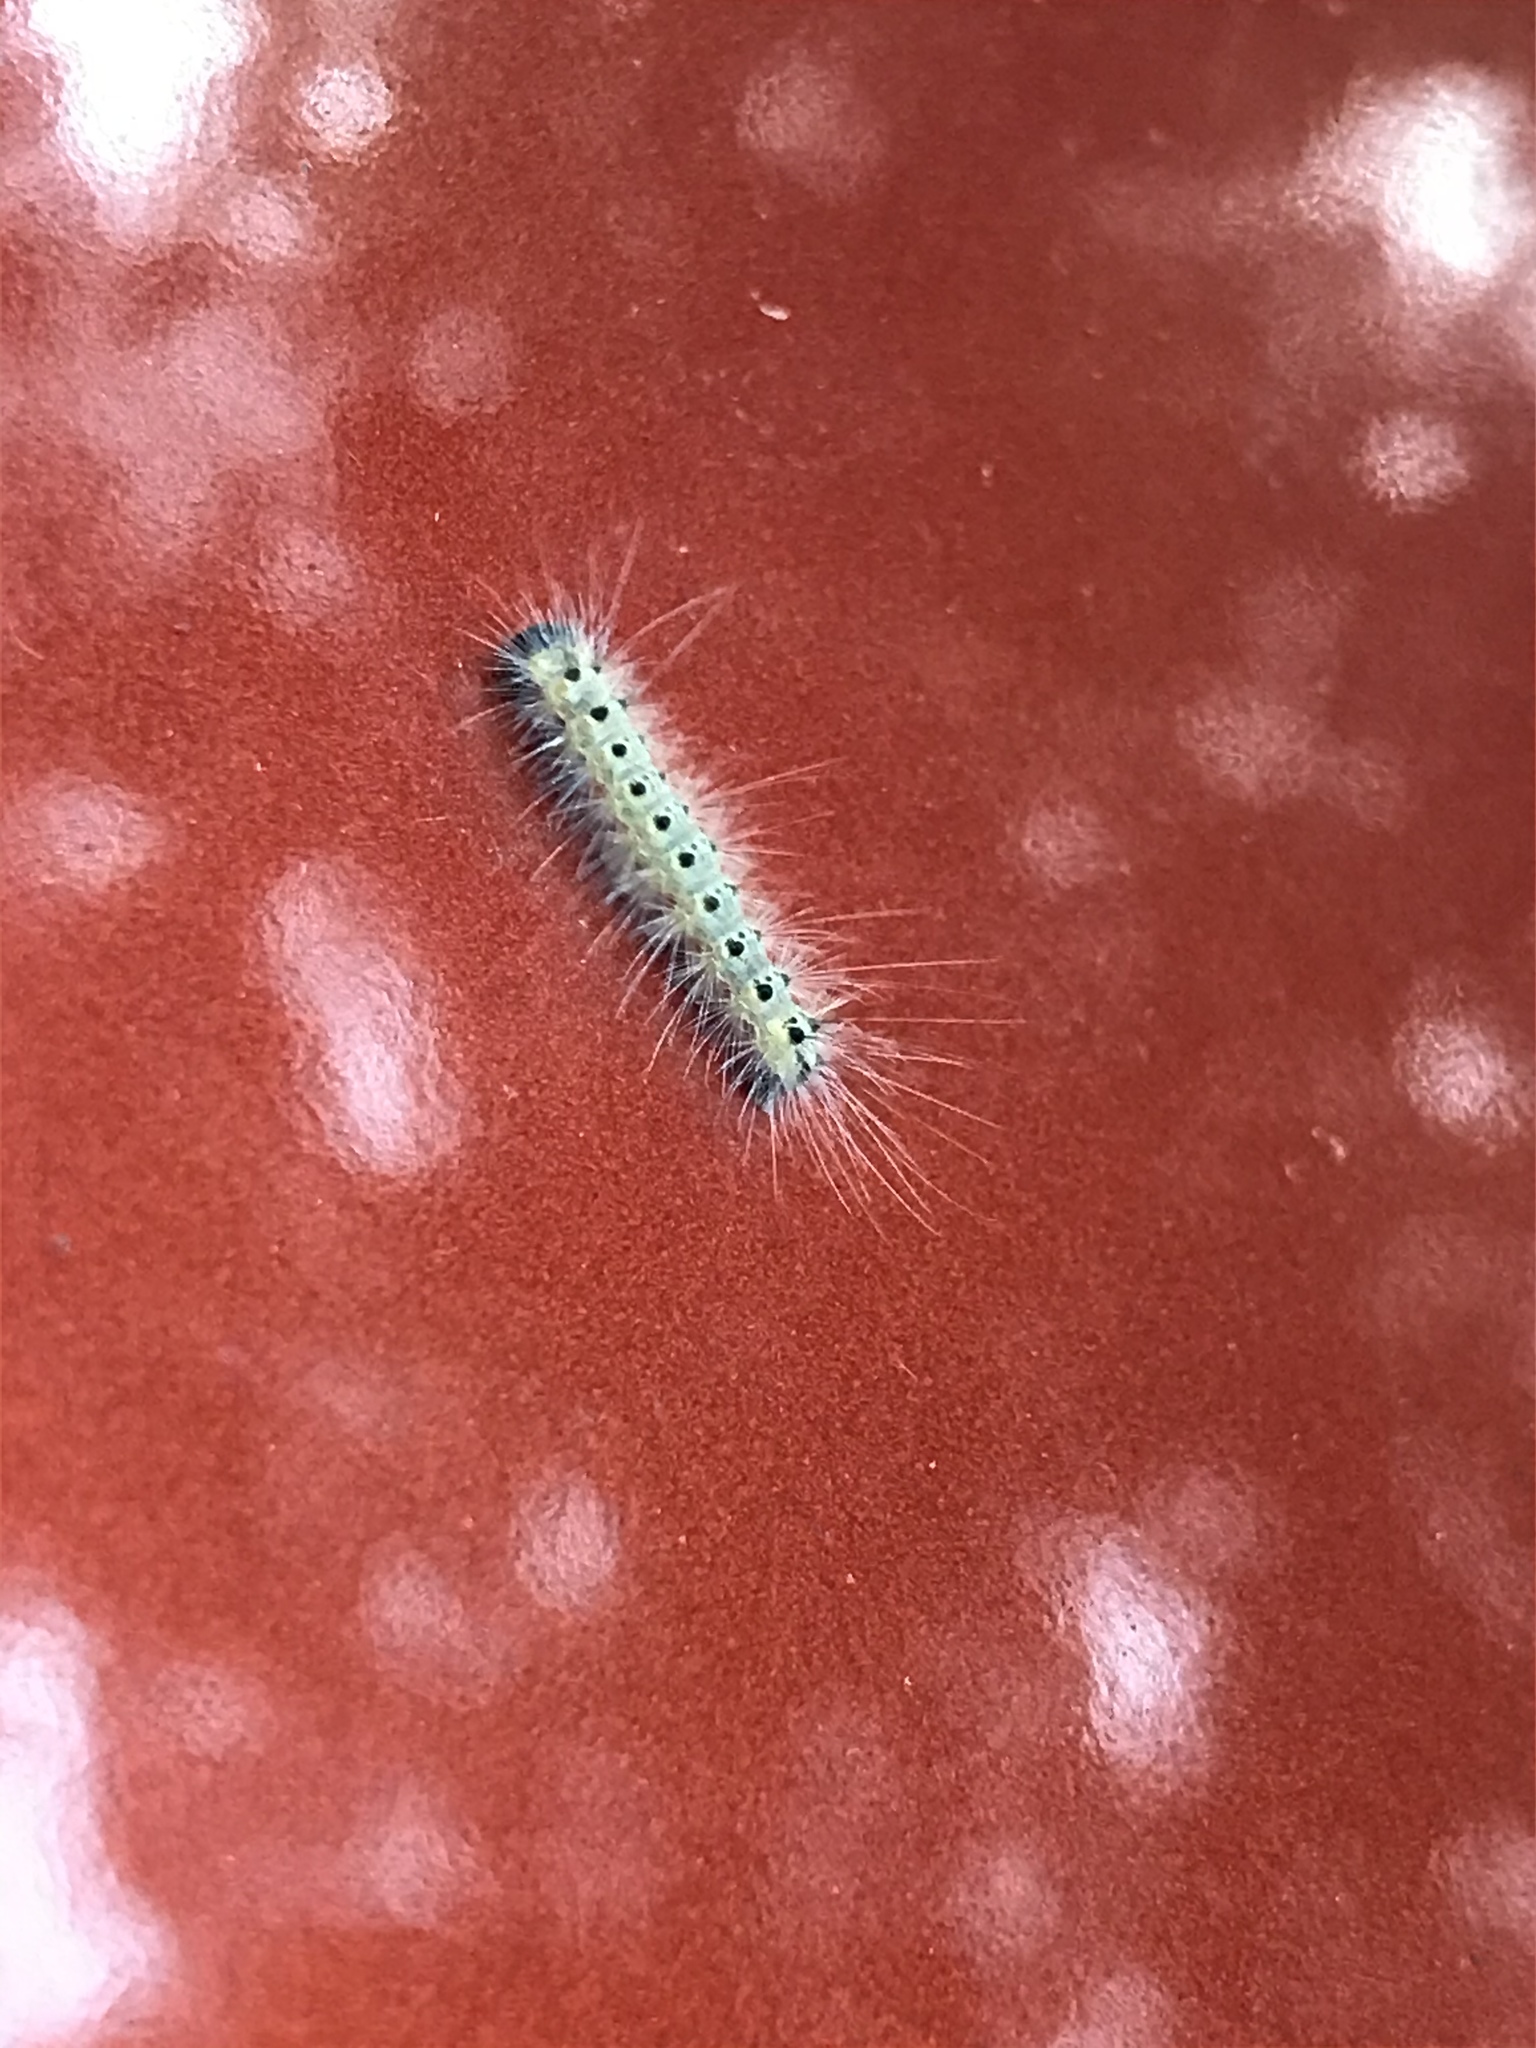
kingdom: Animalia
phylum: Arthropoda
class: Insecta
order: Lepidoptera
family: Erebidae
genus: Hyphantria
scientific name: Hyphantria cunea
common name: American white moth
